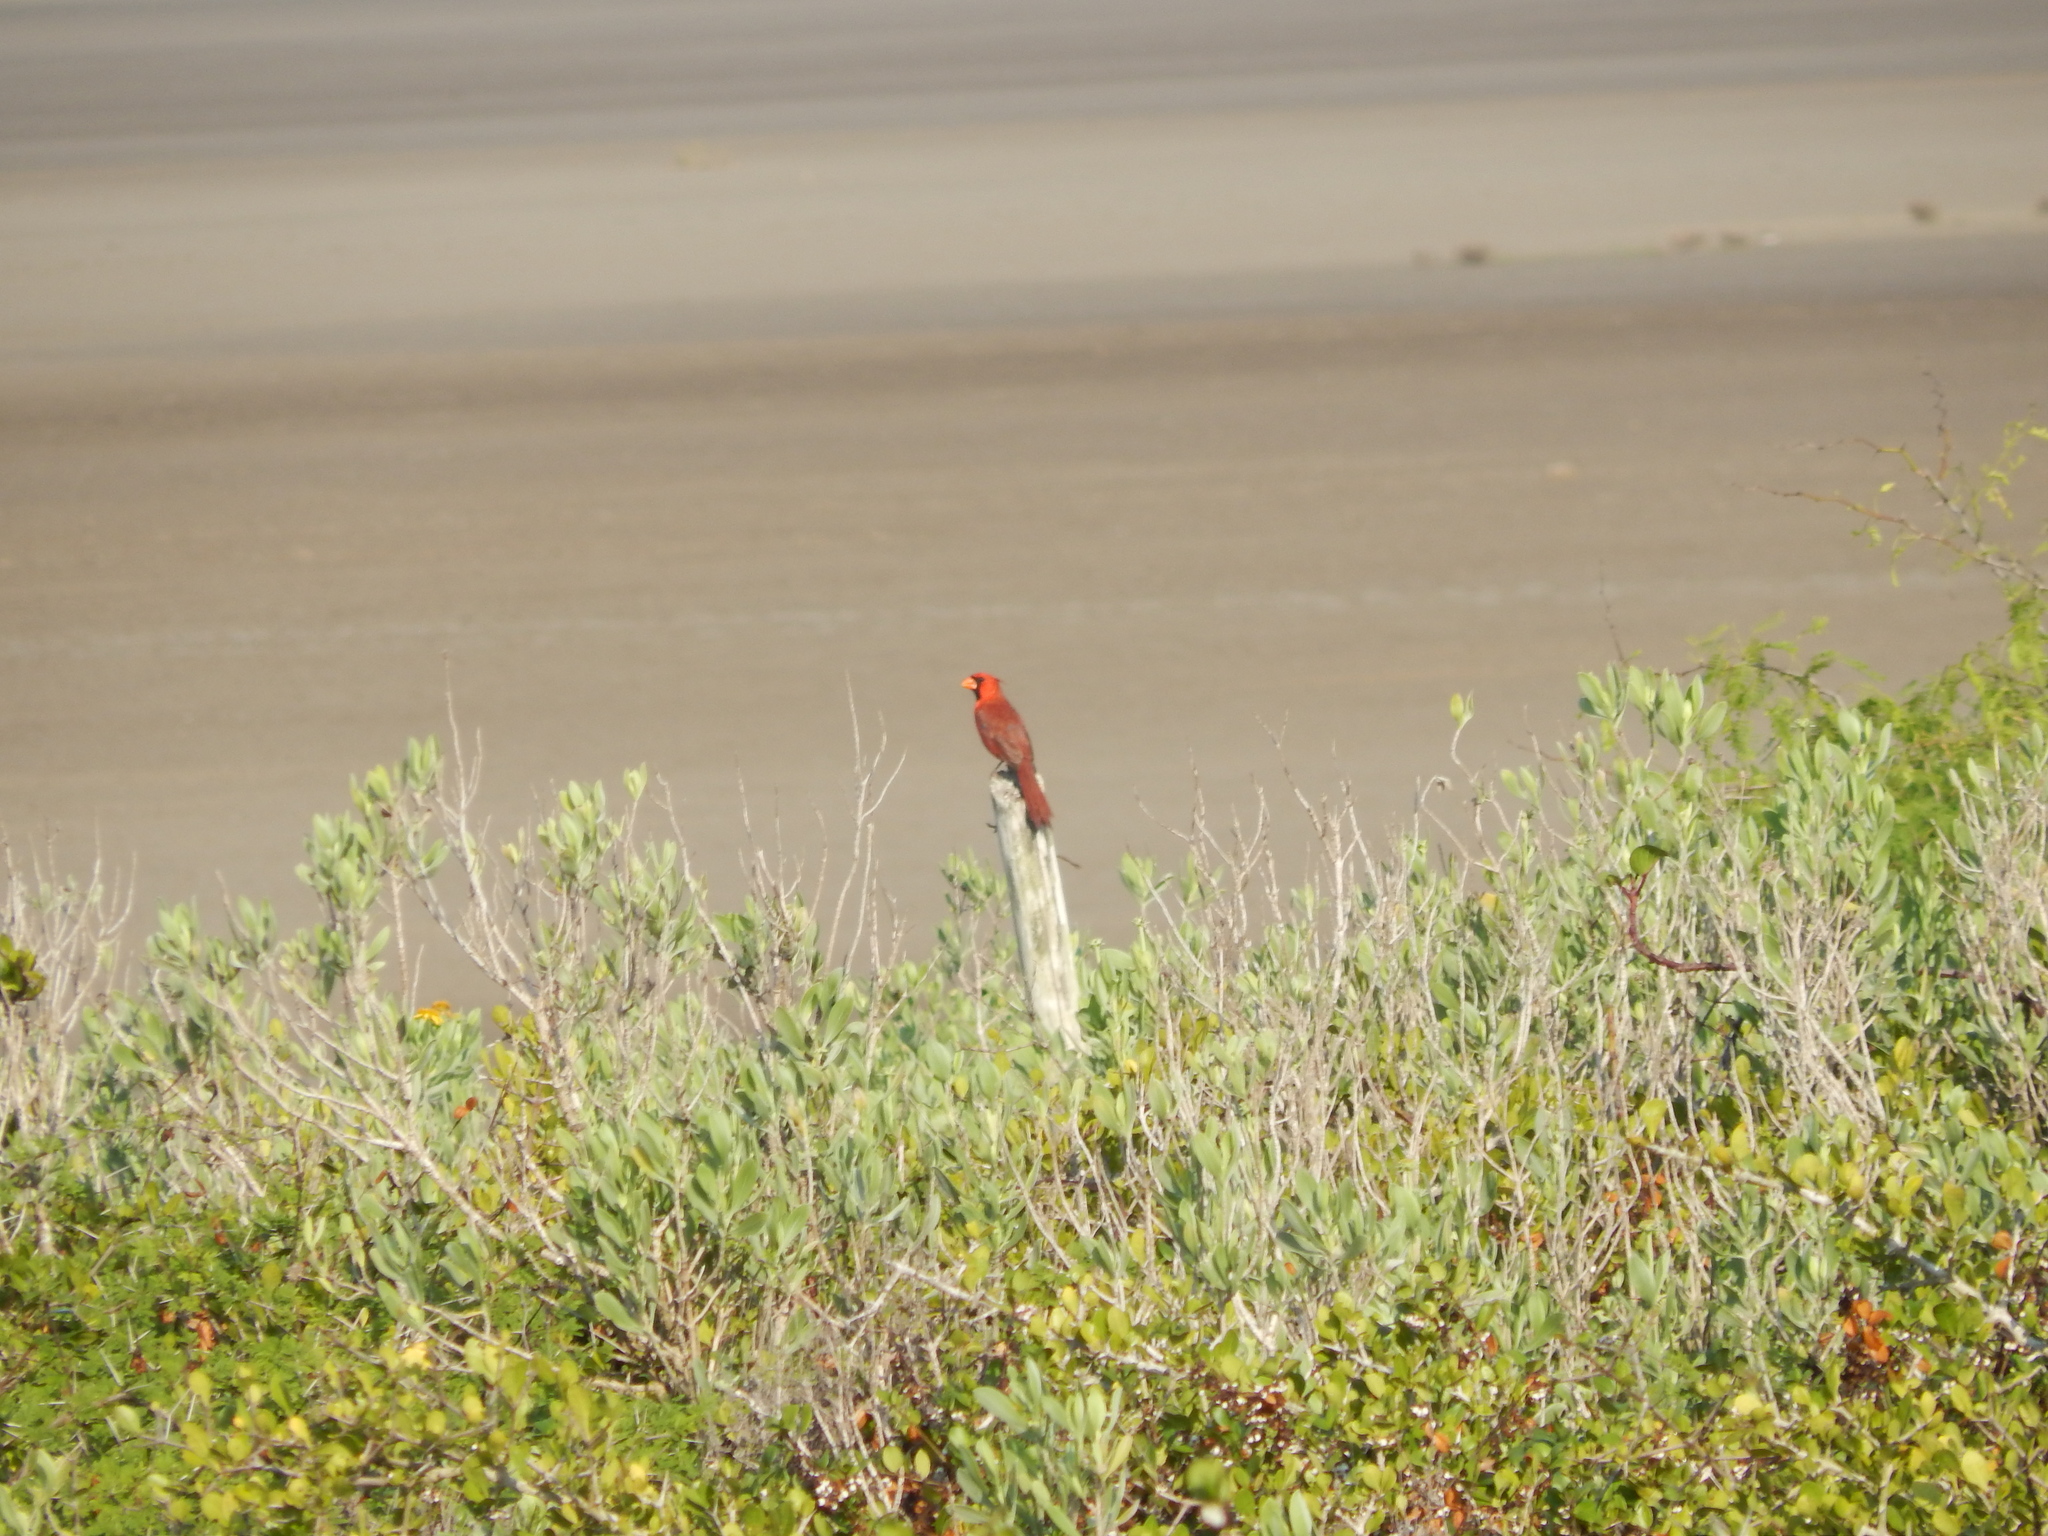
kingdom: Animalia
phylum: Chordata
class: Aves
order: Passeriformes
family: Cardinalidae
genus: Cardinalis
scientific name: Cardinalis cardinalis
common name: Northern cardinal
